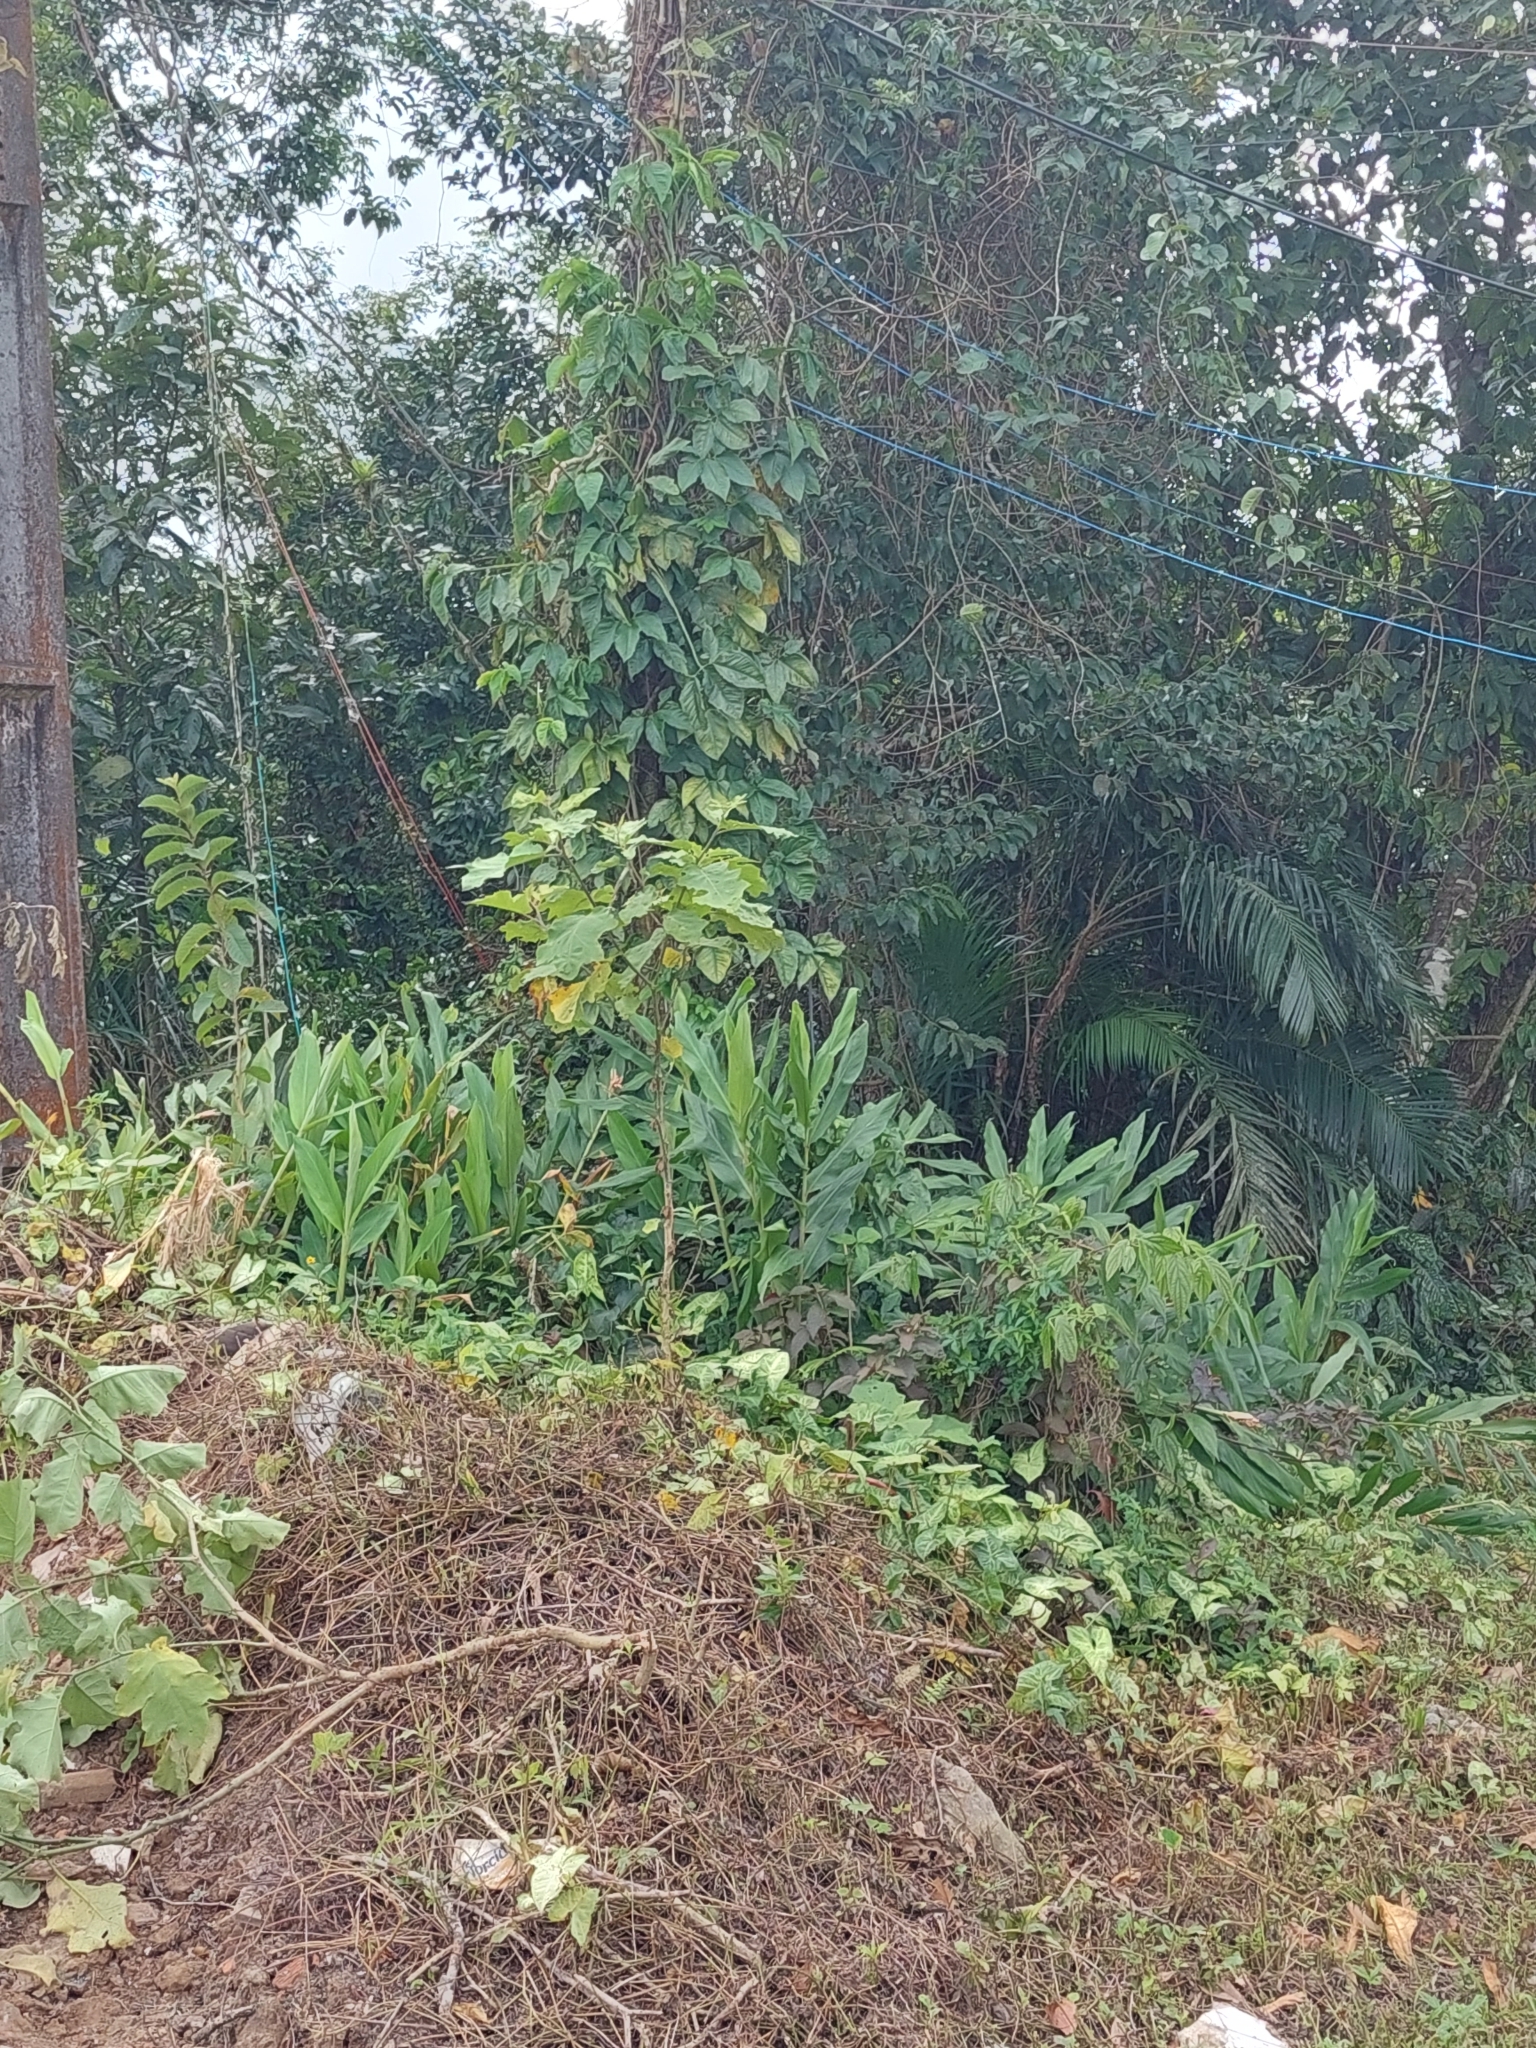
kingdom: Plantae
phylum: Tracheophyta
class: Liliopsida
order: Zingiberales
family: Zingiberaceae
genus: Hedychium
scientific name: Hedychium coronarium
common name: White garland-lily
